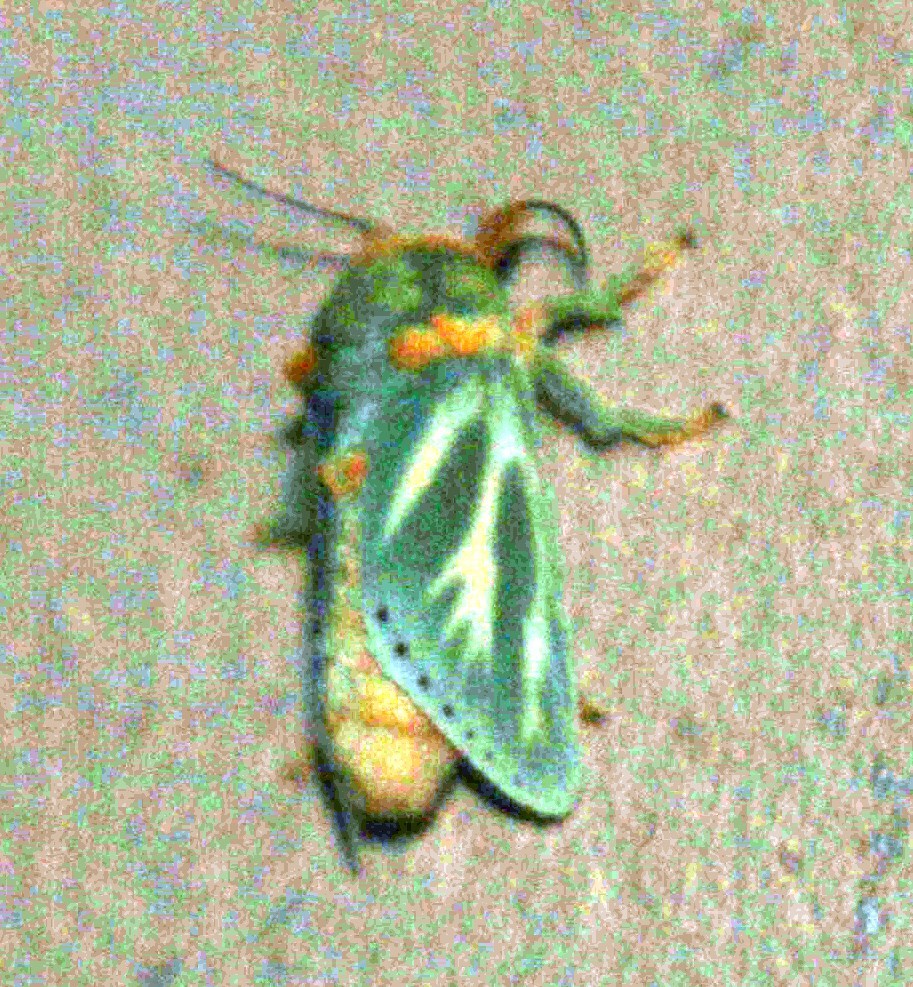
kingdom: Animalia
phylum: Arthropoda
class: Insecta
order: Lepidoptera
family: Limacodidae
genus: Coenobasis
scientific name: Coenobasis albiramosa
